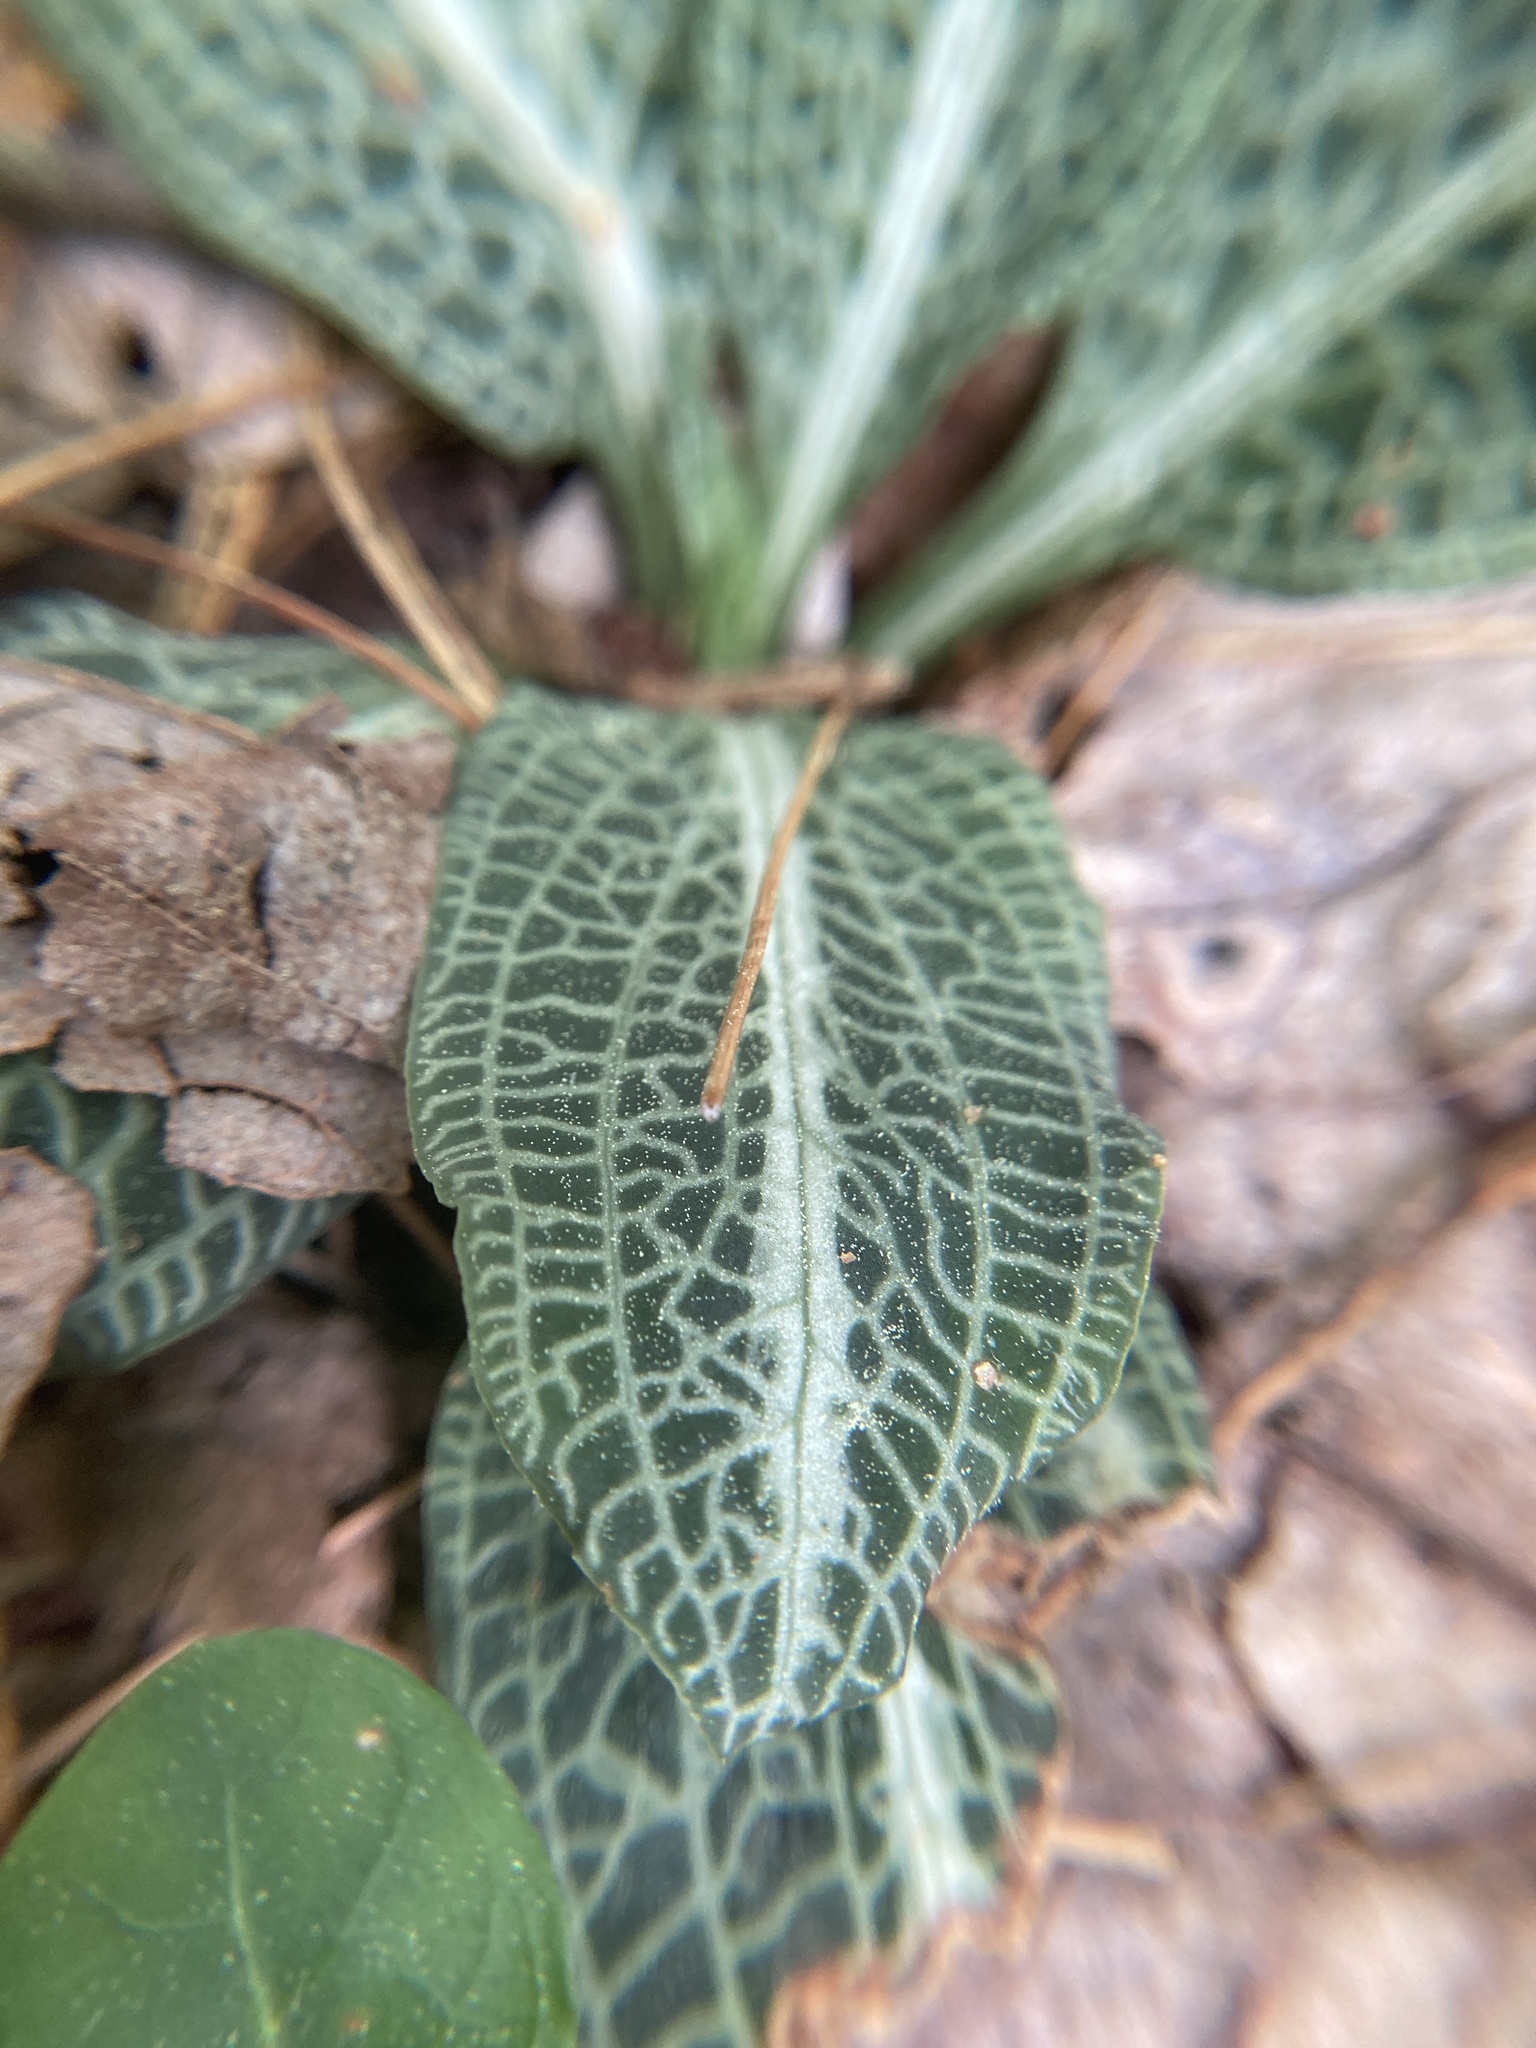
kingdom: Plantae
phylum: Tracheophyta
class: Liliopsida
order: Asparagales
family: Orchidaceae
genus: Goodyera
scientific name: Goodyera pubescens
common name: Downy rattlesnake-plantain
